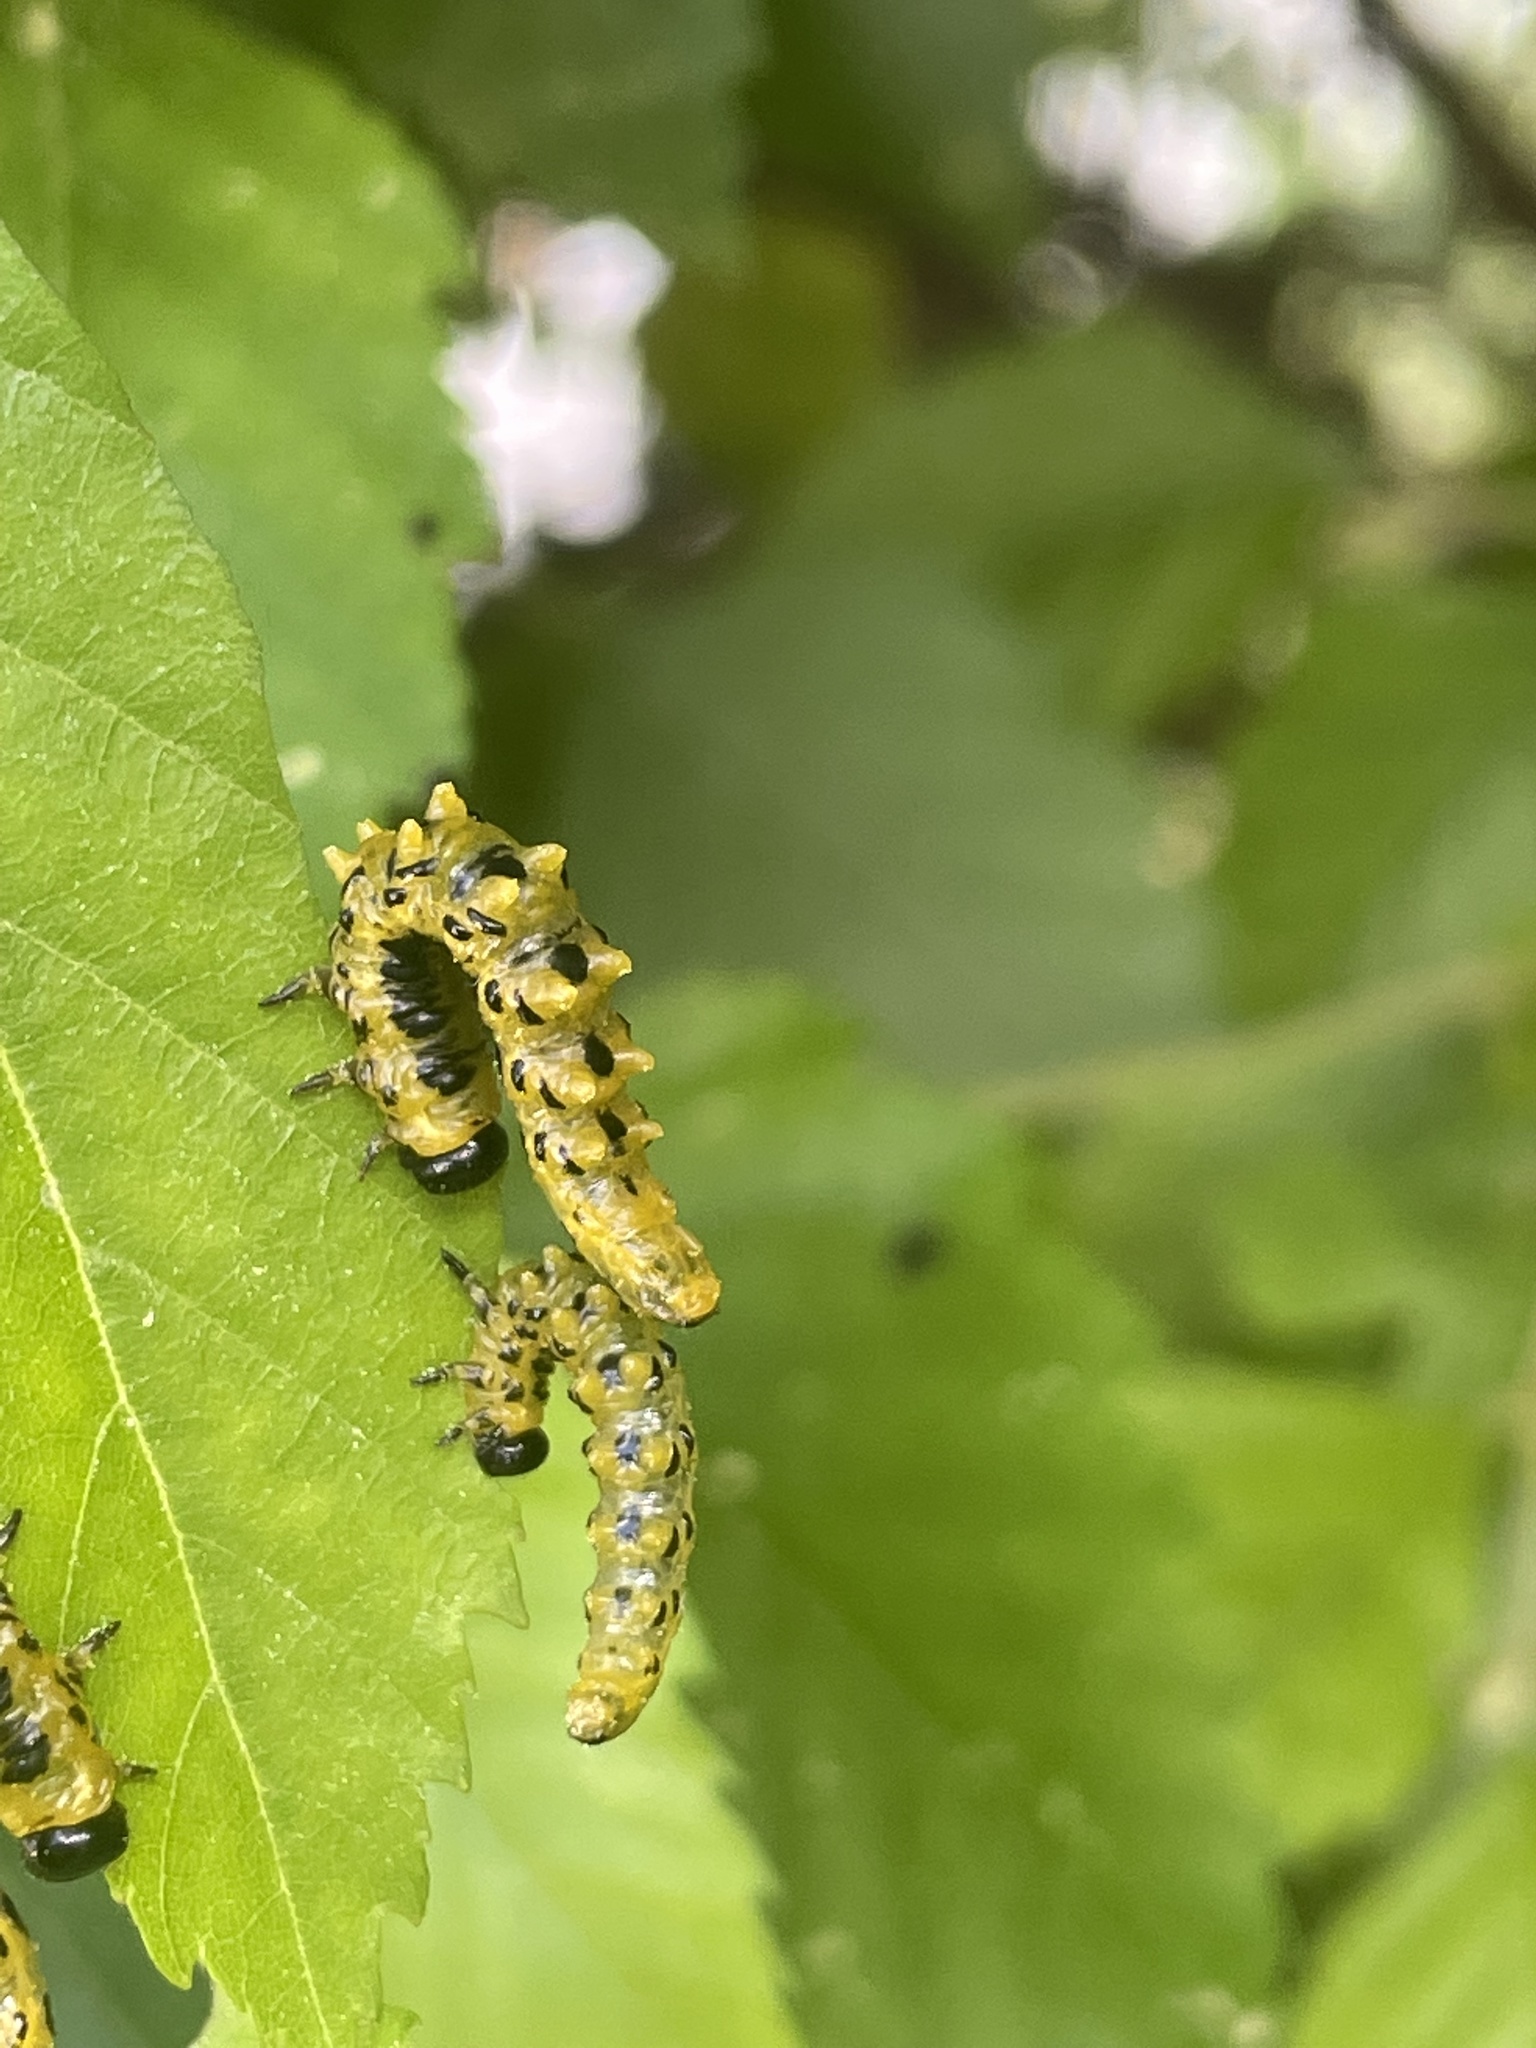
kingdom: Animalia
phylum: Arthropoda
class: Insecta
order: Hymenoptera
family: Tenthredinidae
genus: Nematus
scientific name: Nematus
